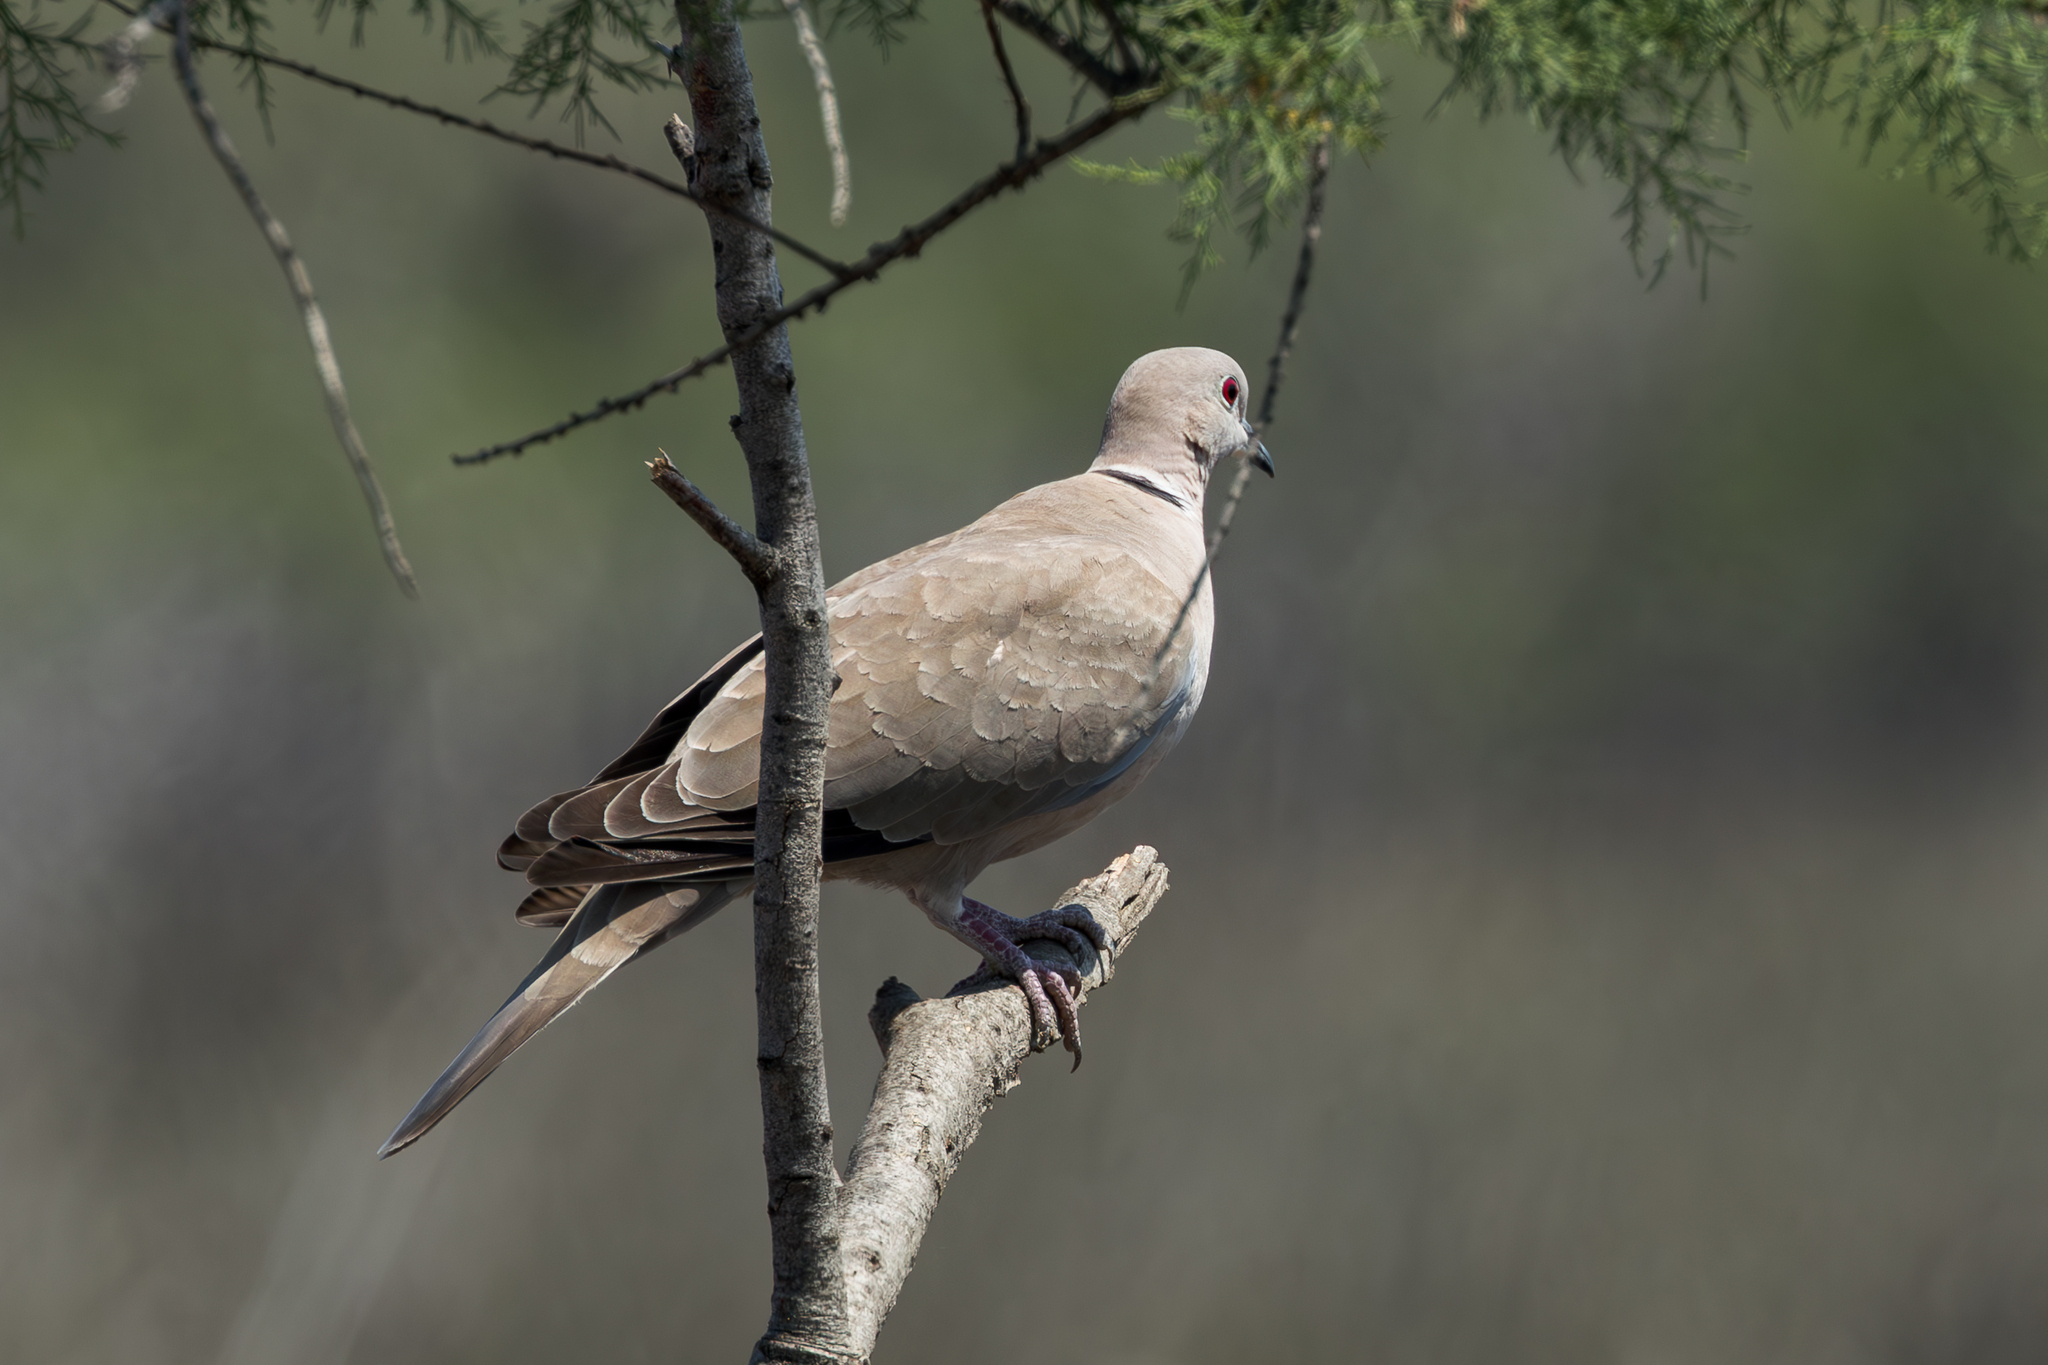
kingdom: Animalia
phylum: Chordata
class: Aves
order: Columbiformes
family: Columbidae
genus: Streptopelia
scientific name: Streptopelia decaocto
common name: Eurasian collared dove
